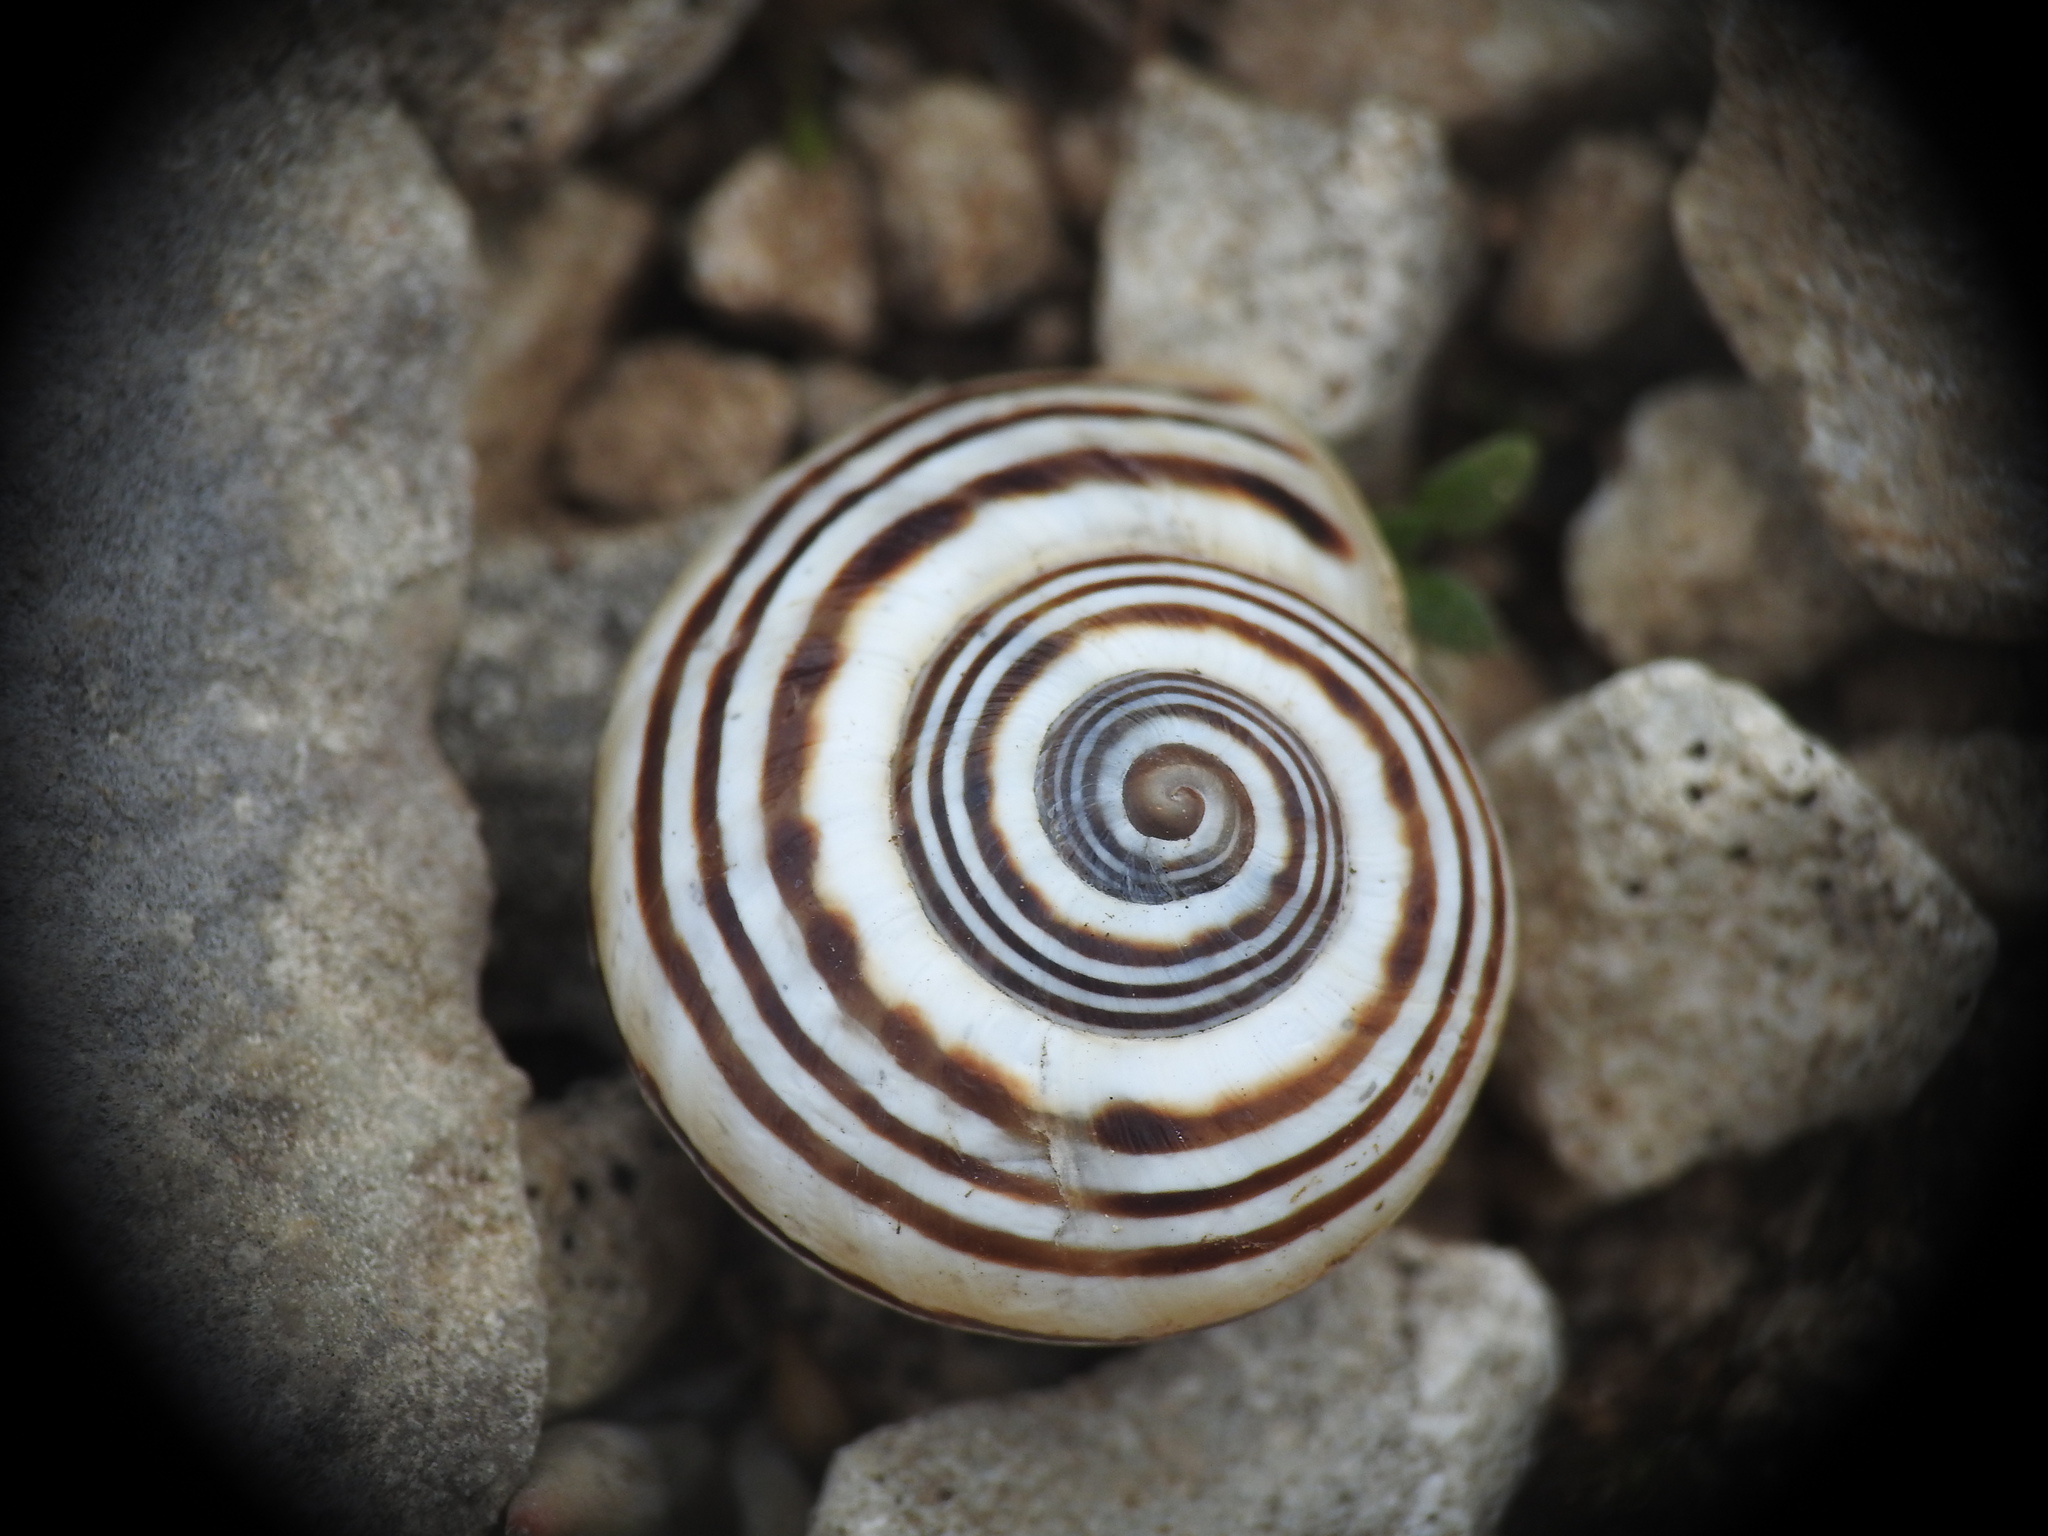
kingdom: Animalia
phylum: Mollusca
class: Gastropoda
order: Stylommatophora
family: Helicidae
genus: Pseudotachea
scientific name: Pseudotachea splendida
